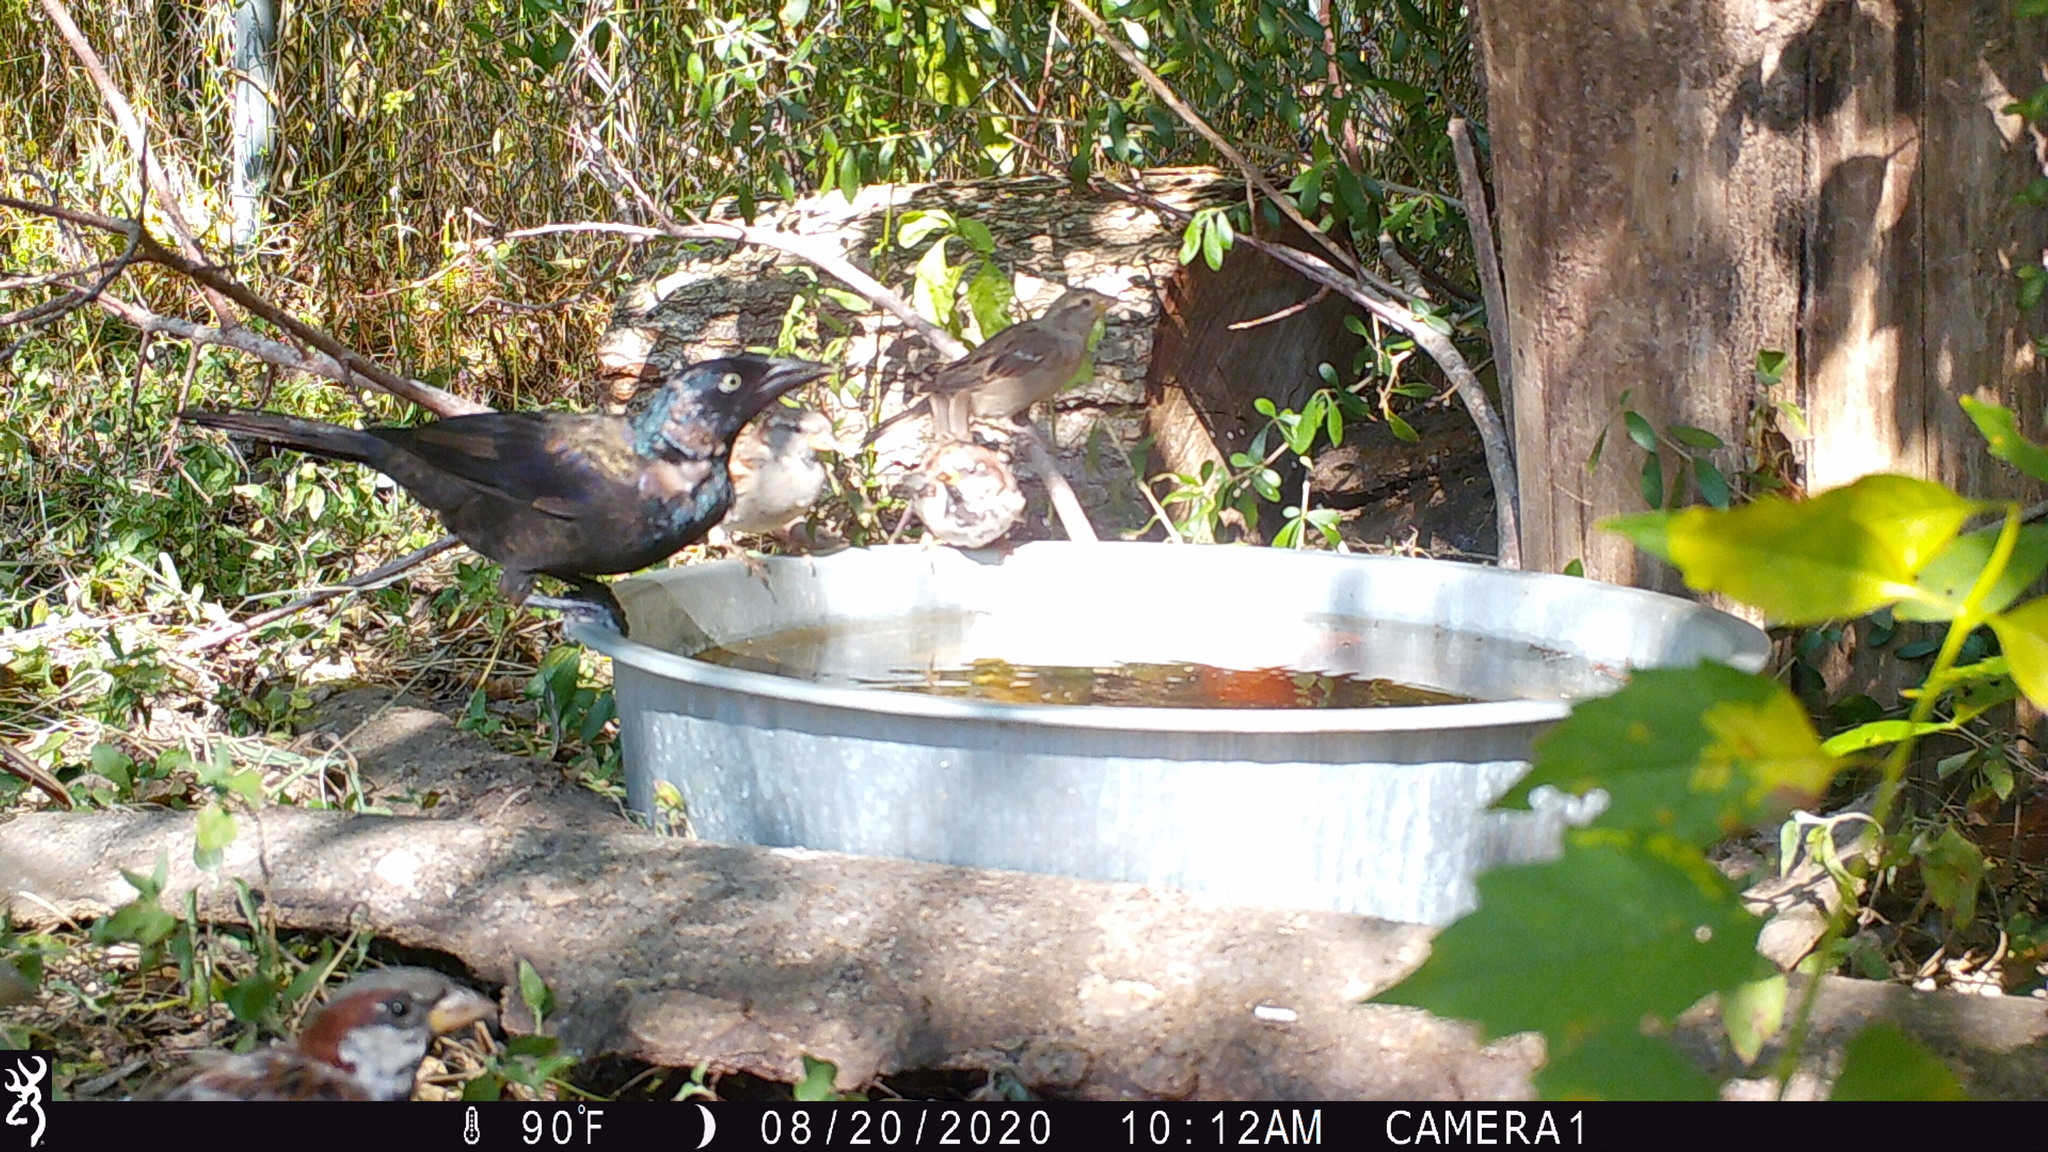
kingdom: Animalia
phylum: Chordata
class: Aves
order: Passeriformes
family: Icteridae
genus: Quiscalus
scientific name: Quiscalus quiscula
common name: Common grackle
